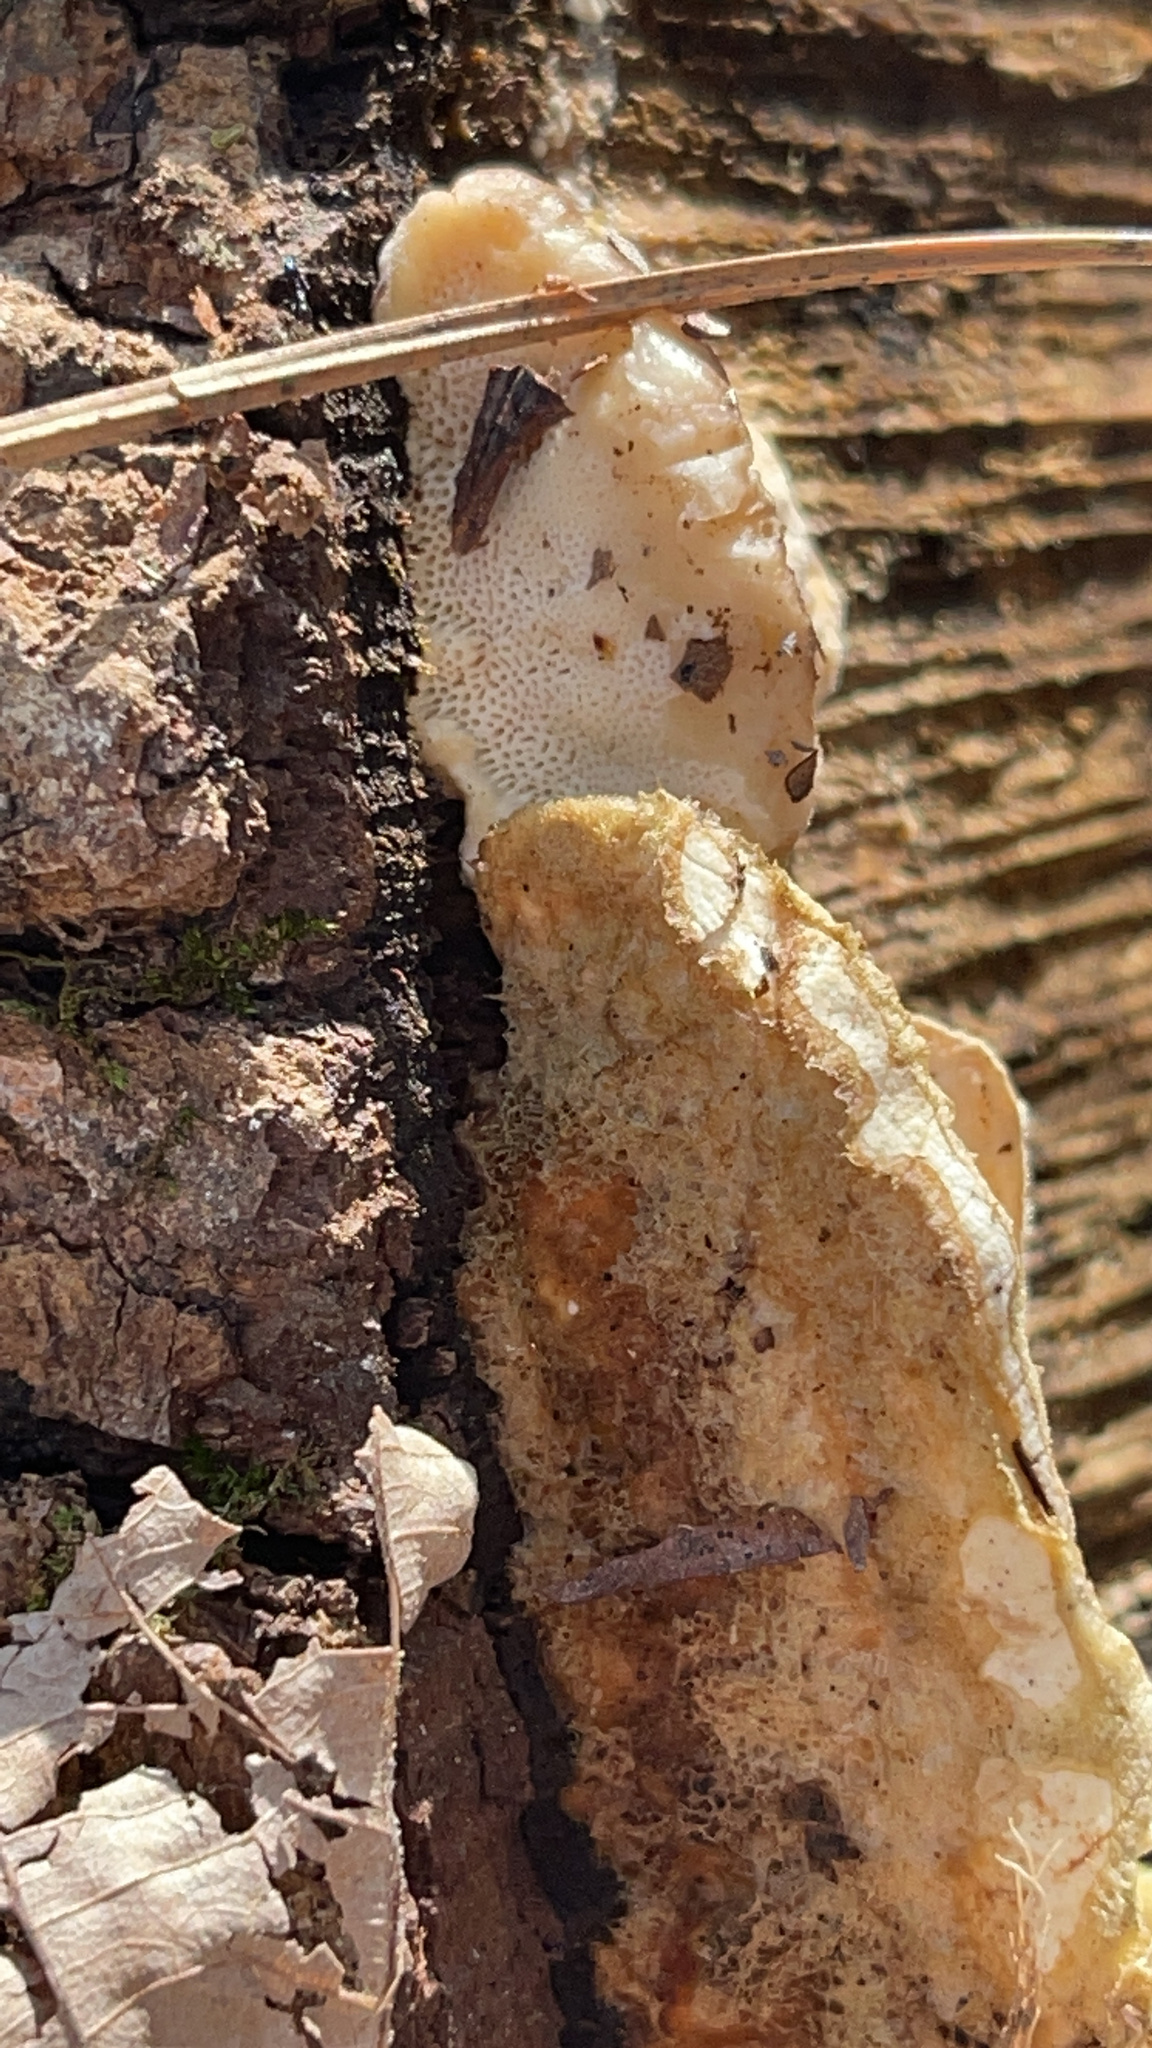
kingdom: Fungi
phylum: Basidiomycota
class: Agaricomycetes
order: Polyporales
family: Polyporaceae
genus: Trametes
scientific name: Trametes hirsuta
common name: Hairy bracket
